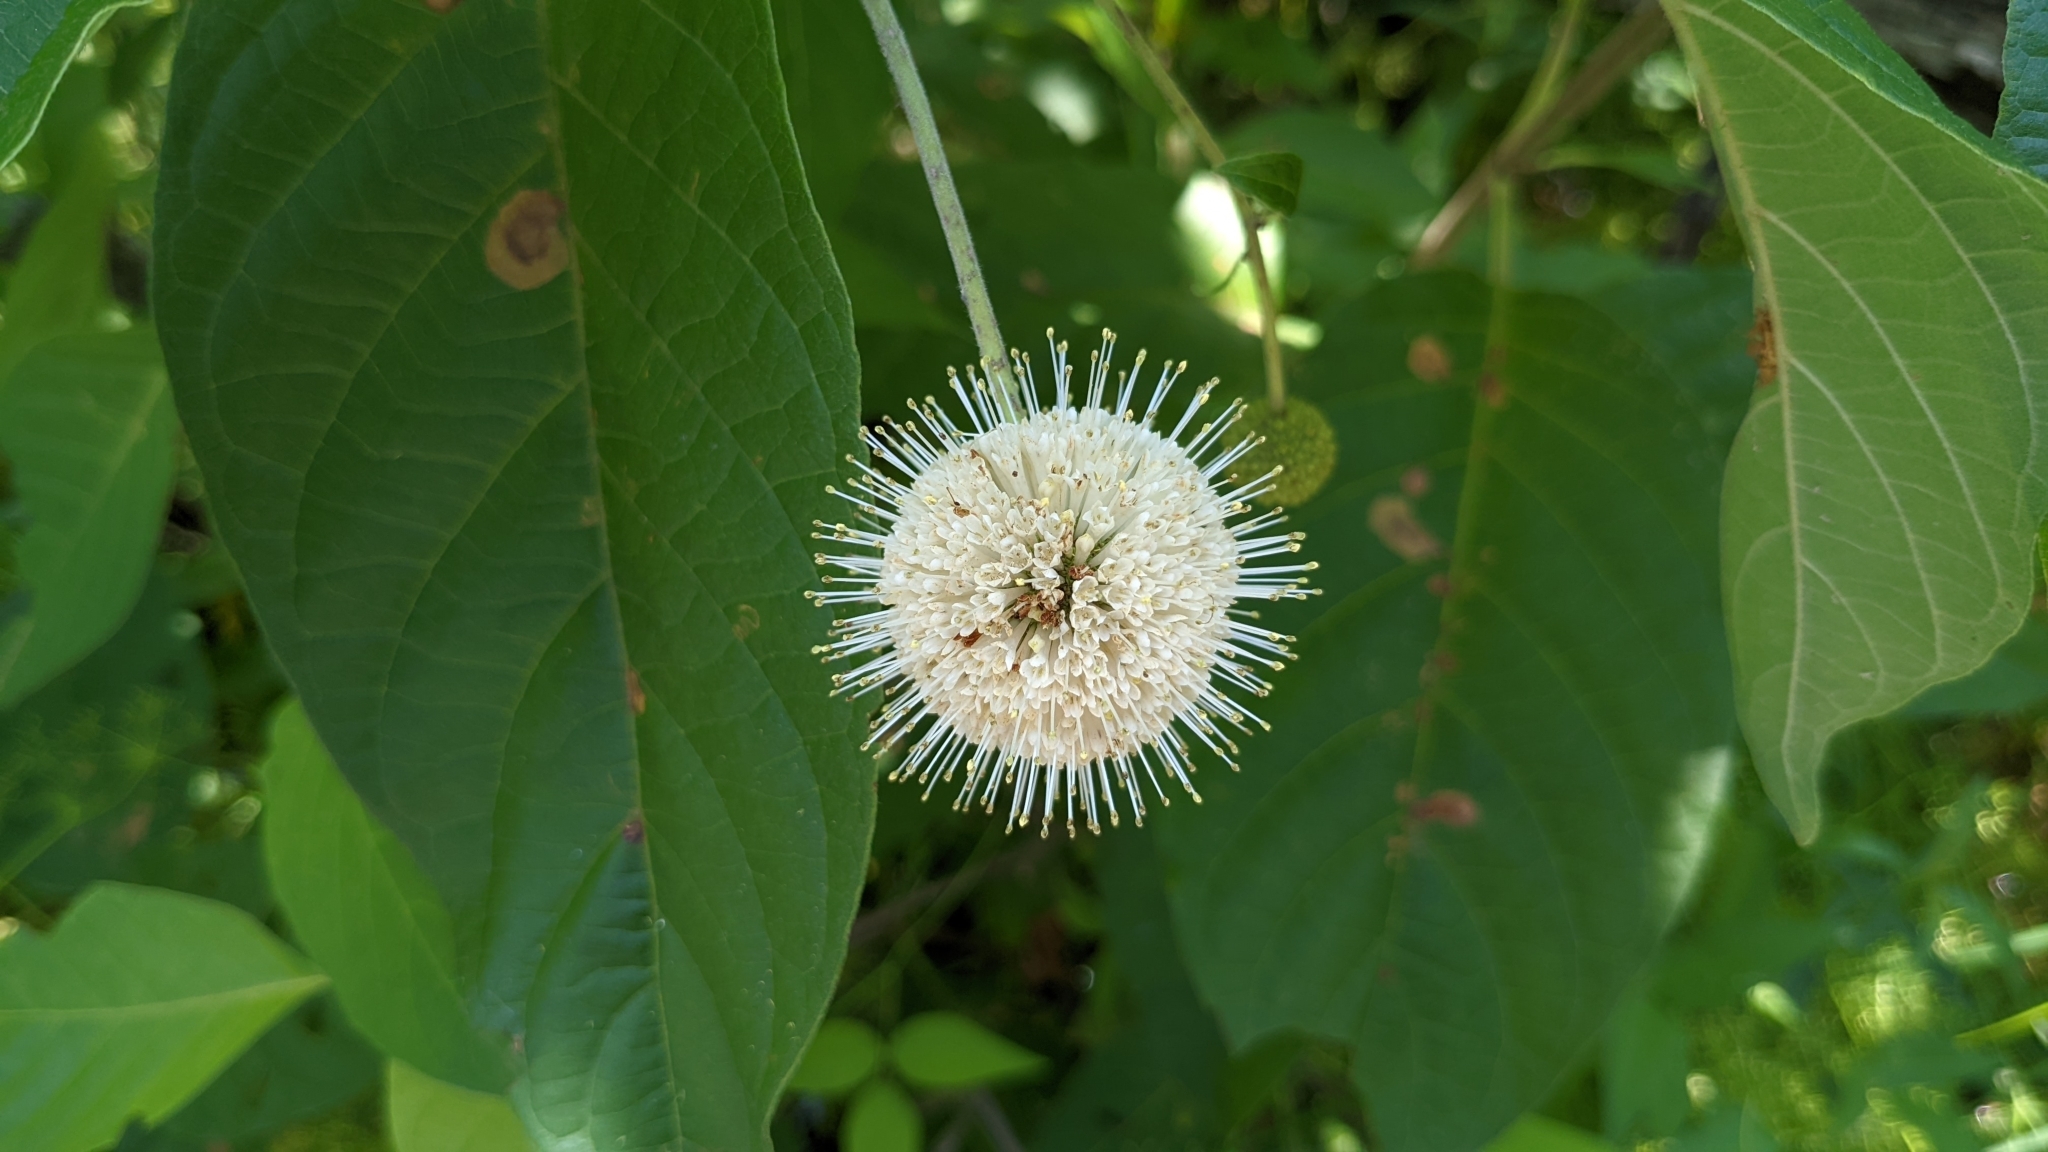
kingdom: Plantae
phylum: Tracheophyta
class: Magnoliopsida
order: Gentianales
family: Rubiaceae
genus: Cephalanthus
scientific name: Cephalanthus occidentalis
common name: Button-willow
